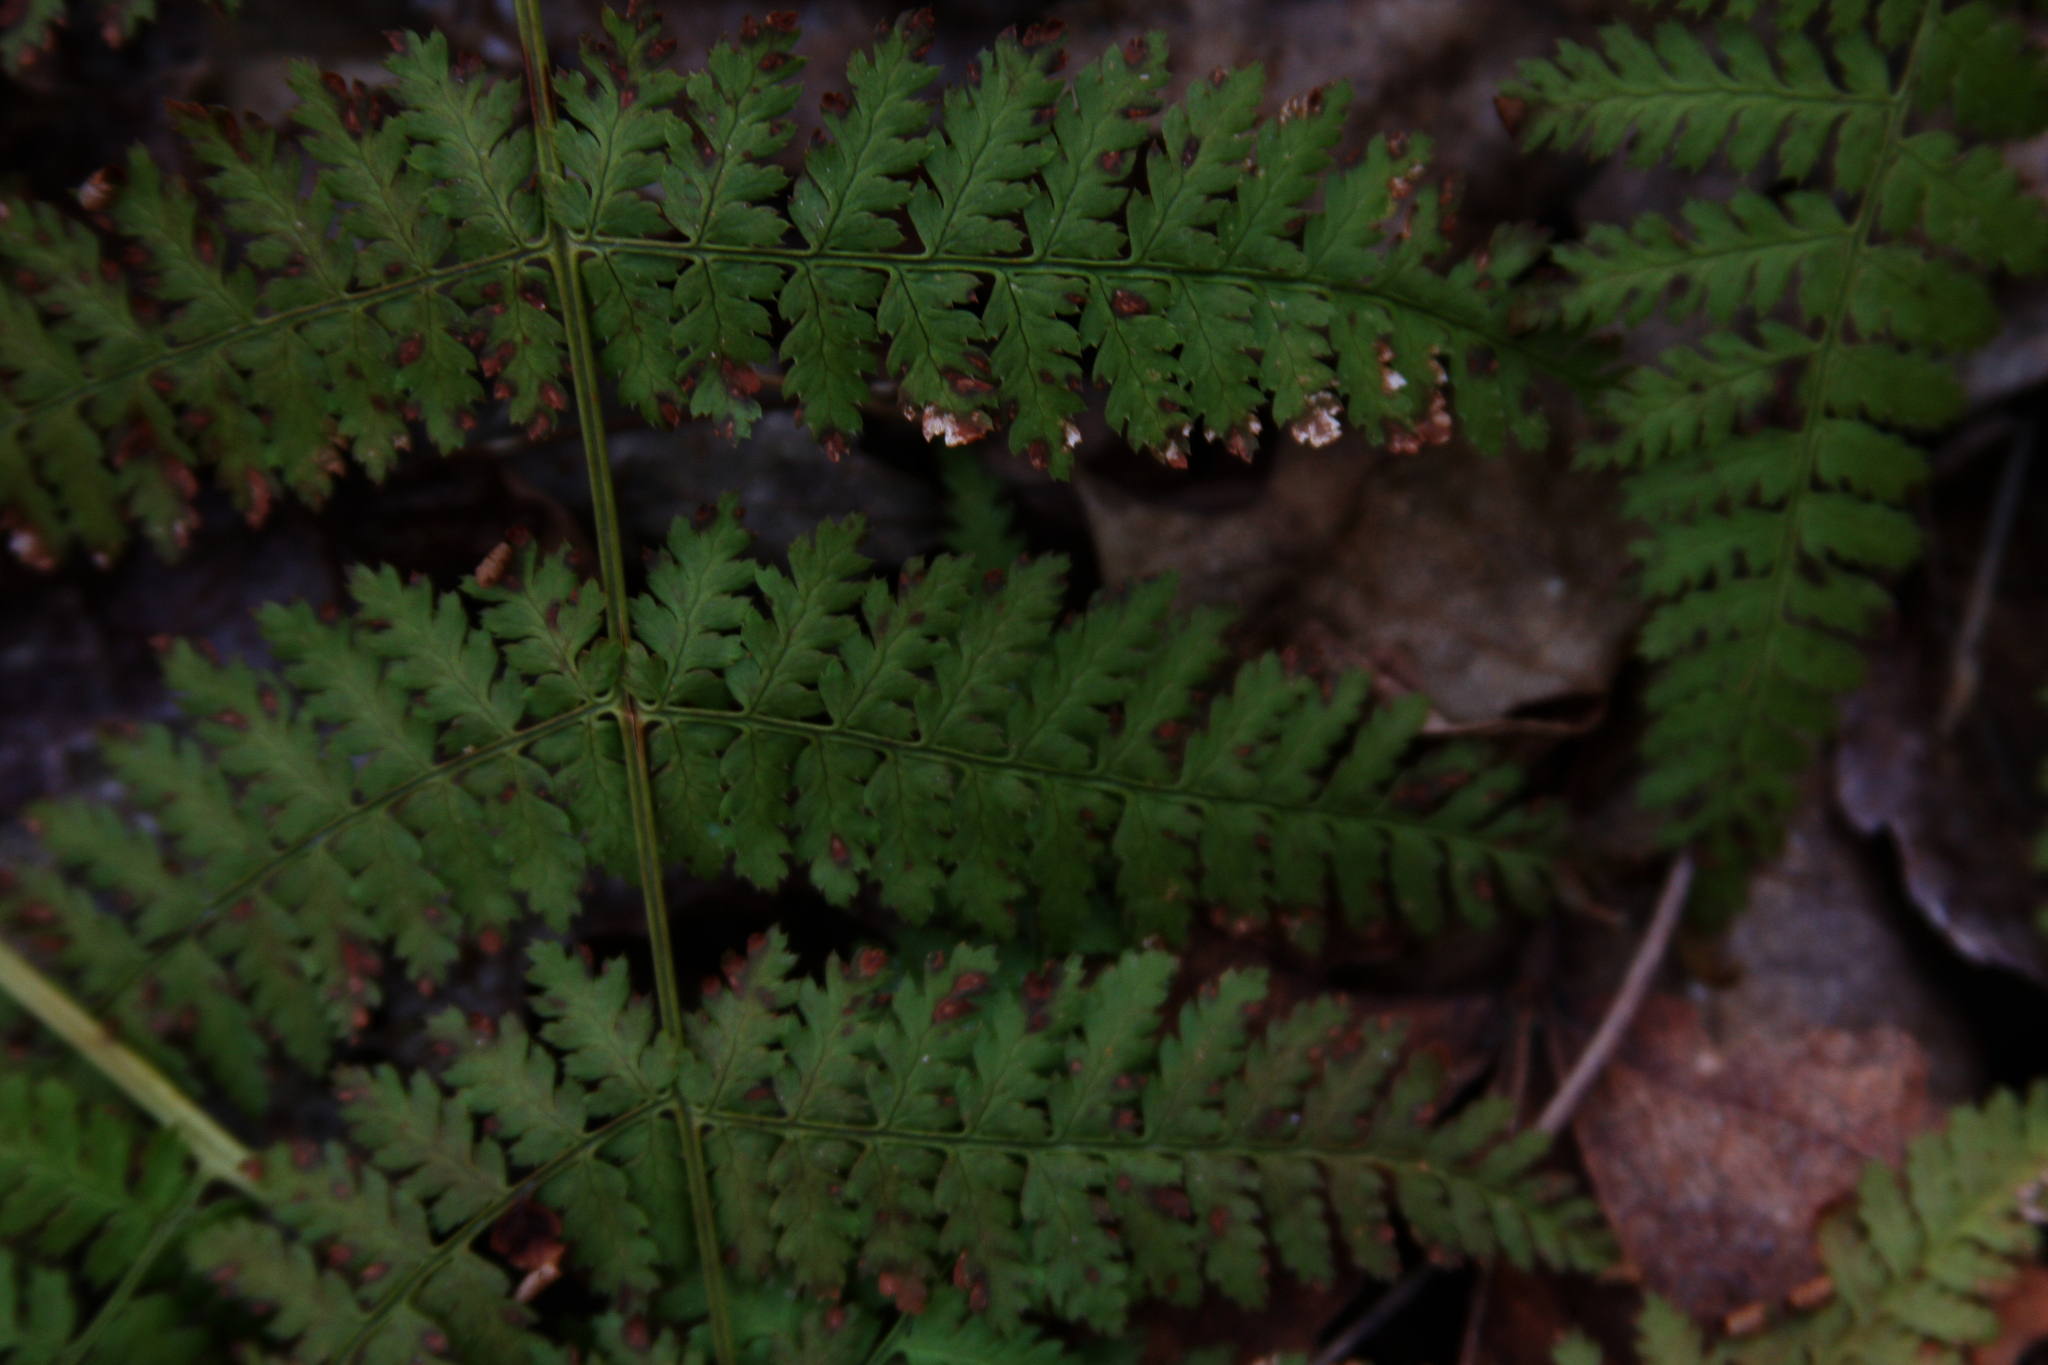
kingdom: Plantae
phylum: Tracheophyta
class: Polypodiopsida
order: Polypodiales
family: Dryopteridaceae
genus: Dryopteris
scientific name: Dryopteris intermedia
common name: Evergreen wood fern
